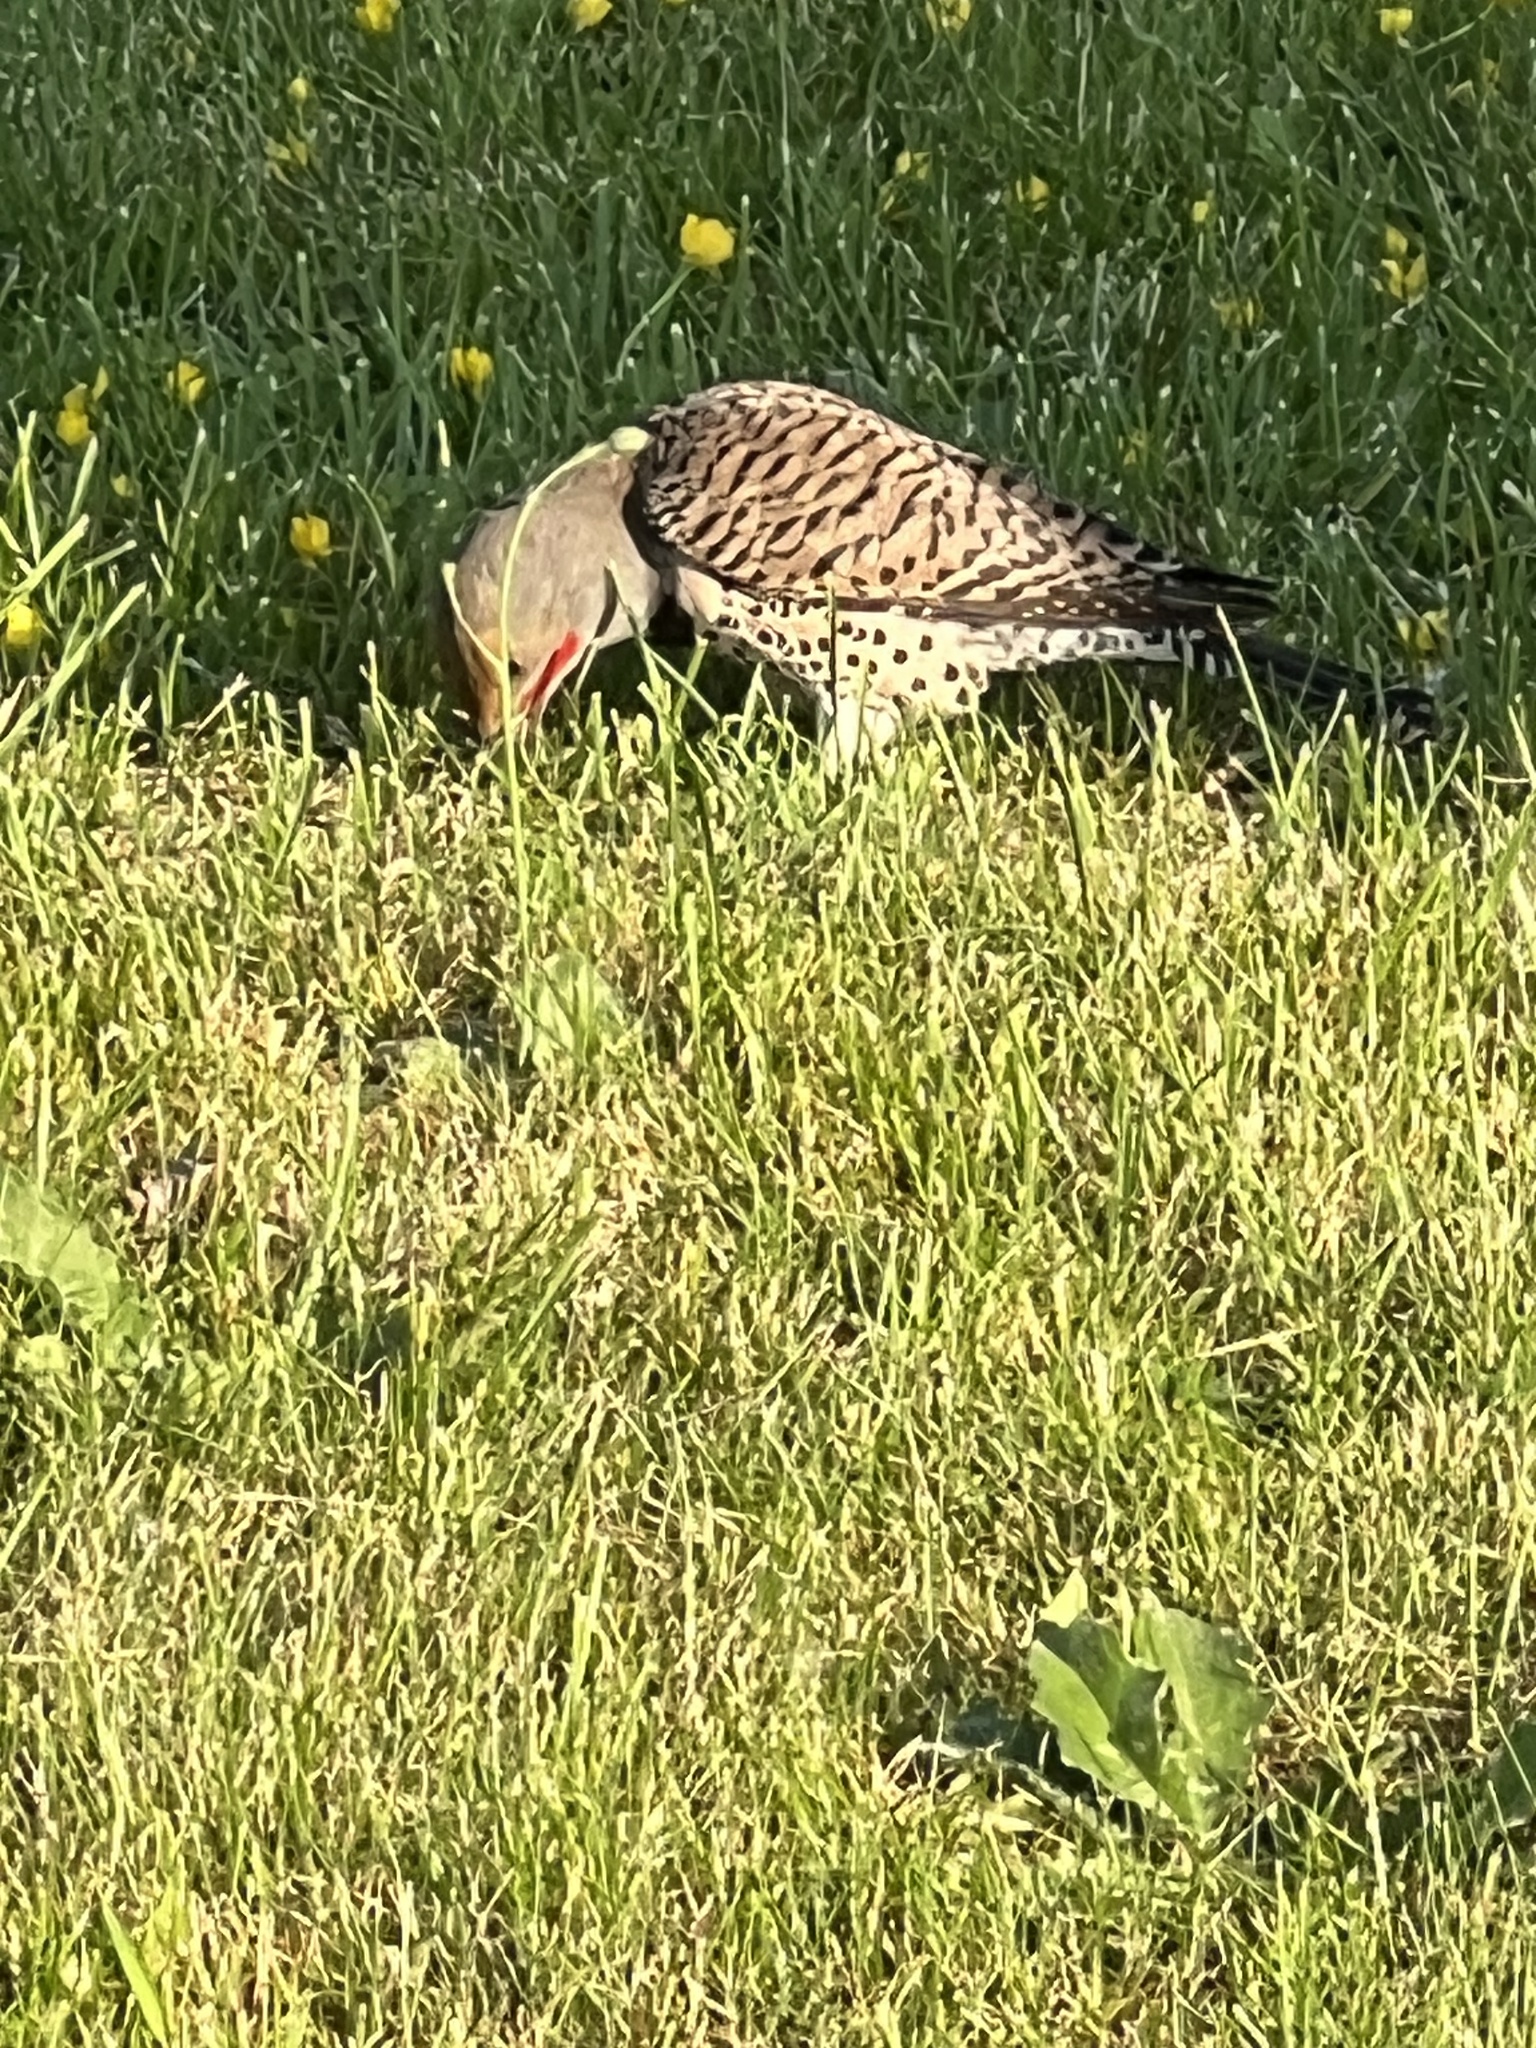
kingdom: Animalia
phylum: Chordata
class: Aves
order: Piciformes
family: Picidae
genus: Colaptes
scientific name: Colaptes auratus
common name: Northern flicker
